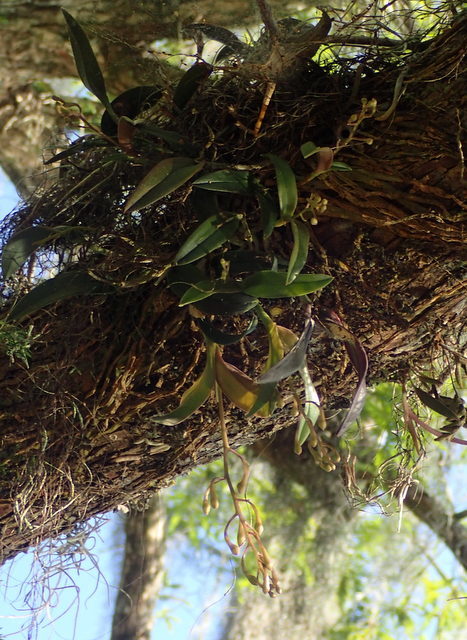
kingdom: Plantae
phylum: Tracheophyta
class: Liliopsida
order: Asparagales
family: Orchidaceae
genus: Epidendrum
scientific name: Epidendrum conopseum
